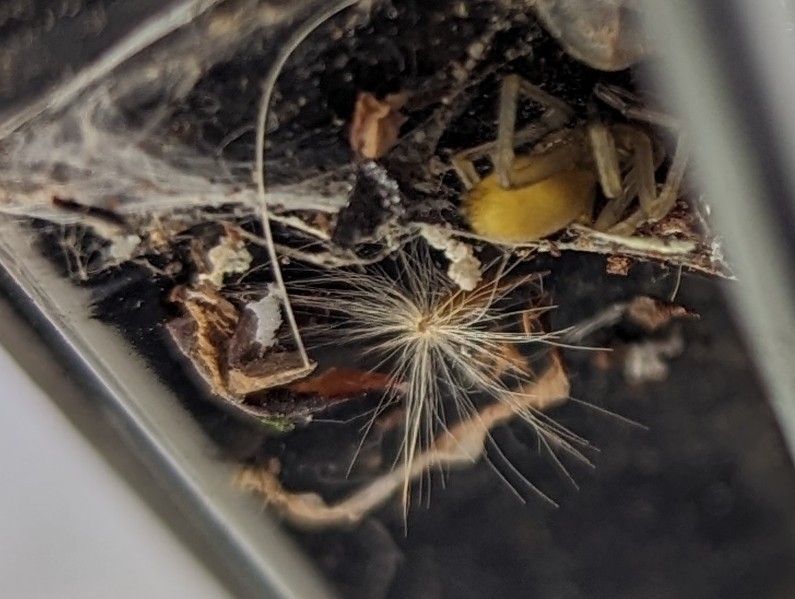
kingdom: Animalia
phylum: Arthropoda
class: Arachnida
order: Araneae
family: Cheiracanthiidae
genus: Cheiracanthium
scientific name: Cheiracanthium mildei
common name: Northern yellow sac spider
